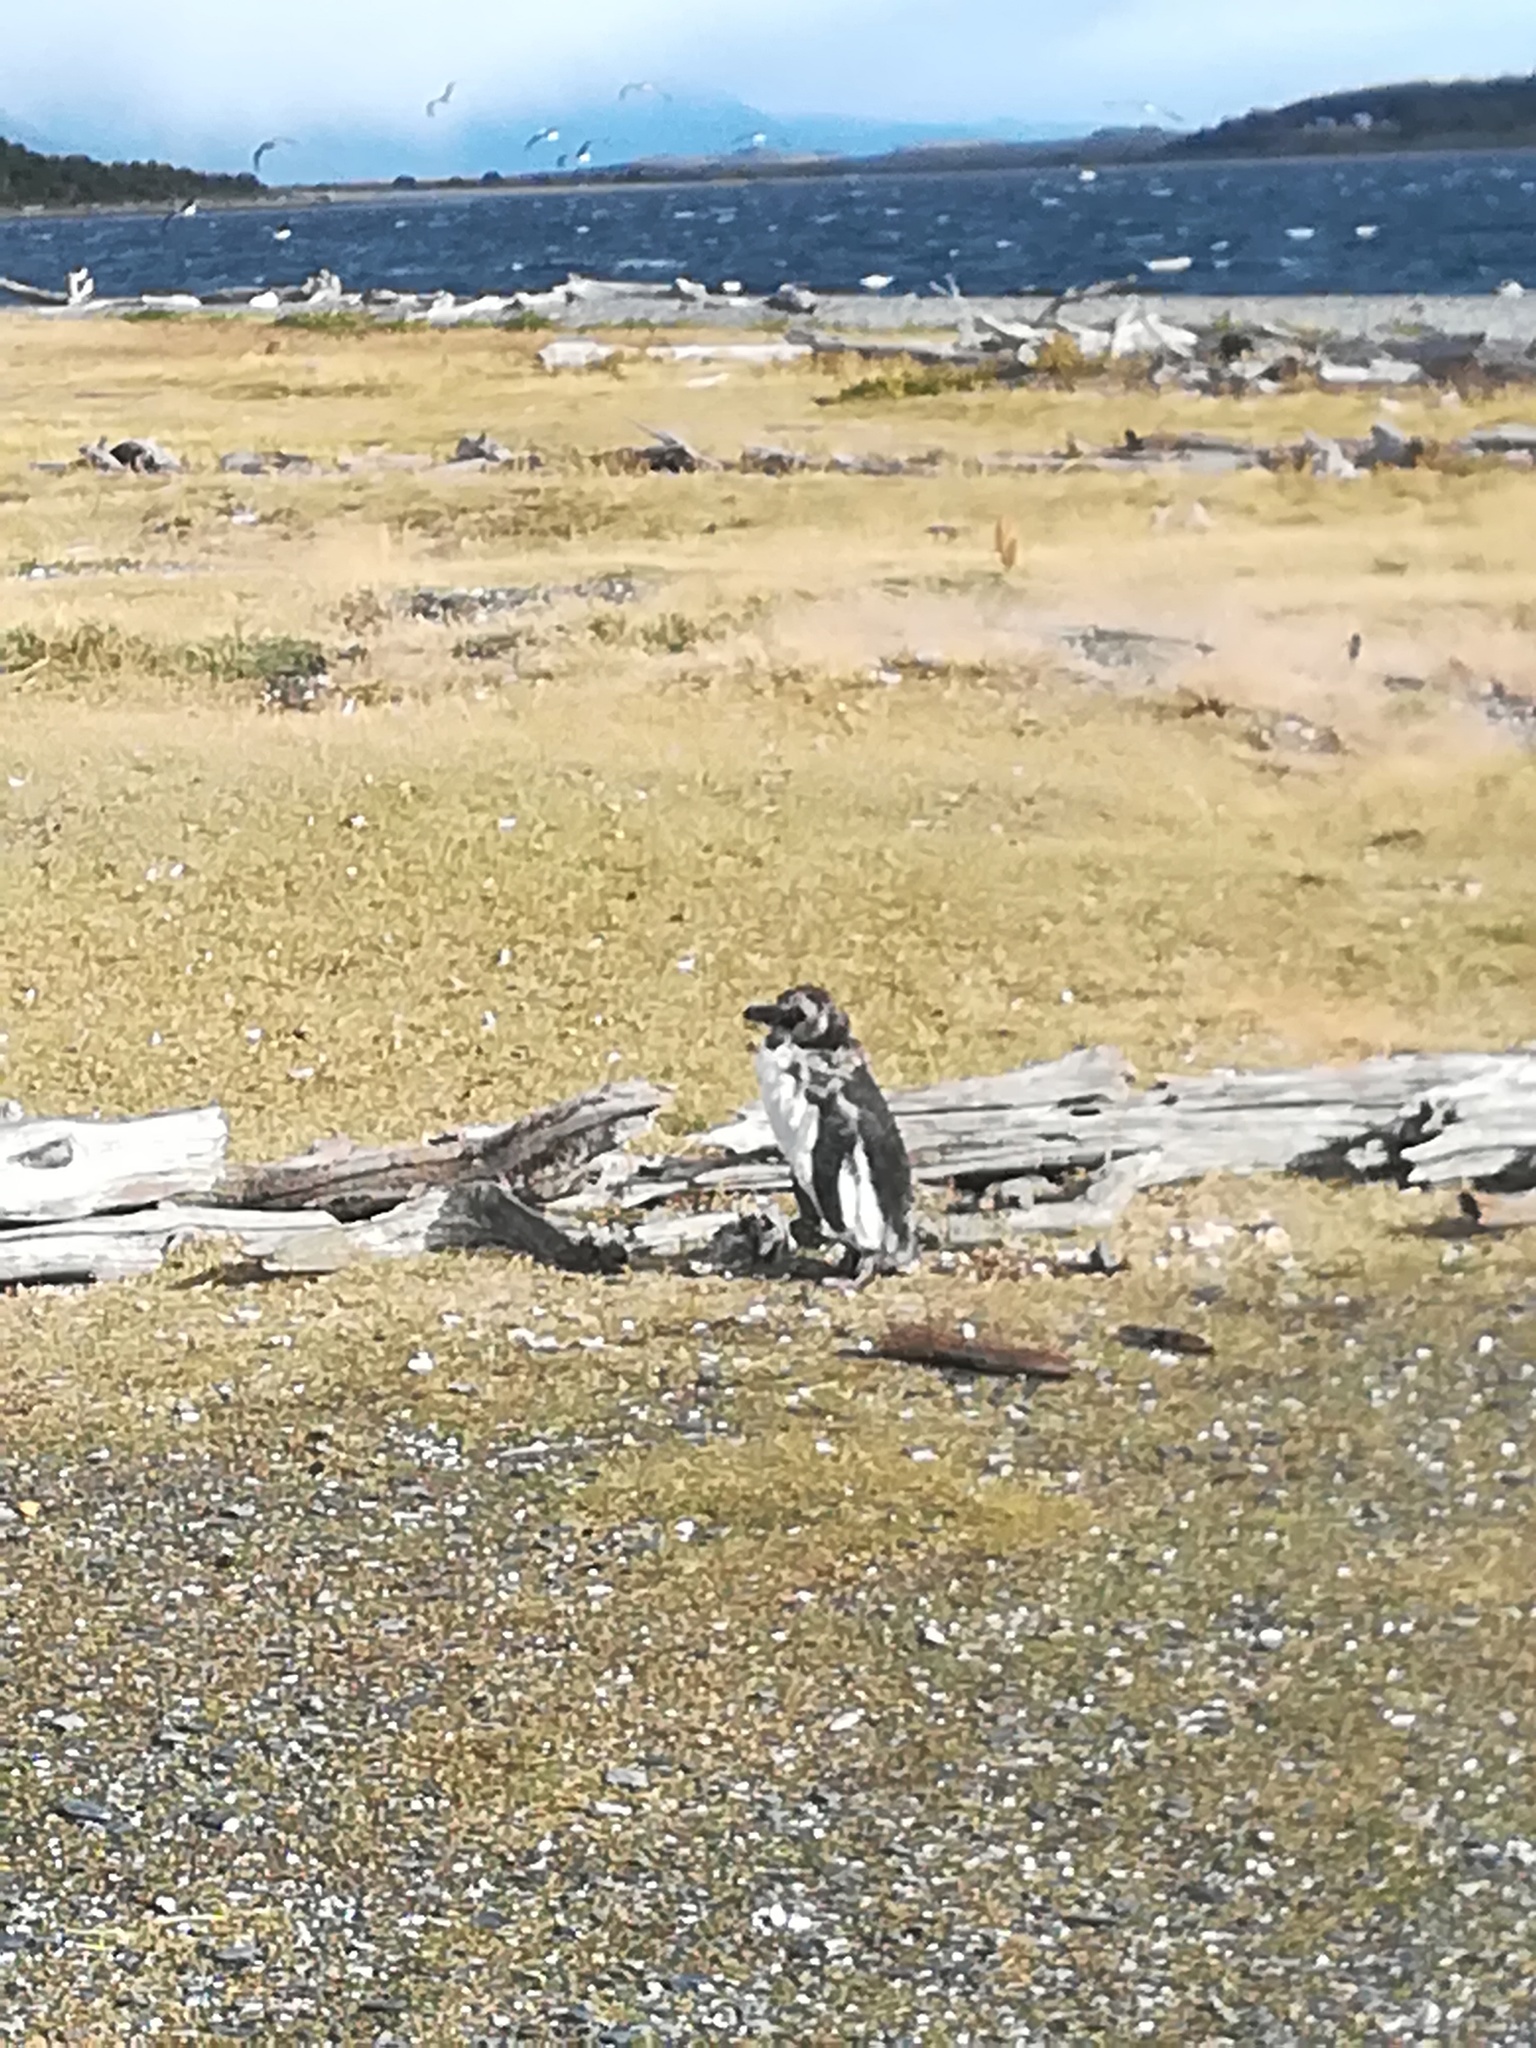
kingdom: Animalia
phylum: Chordata
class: Aves
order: Sphenisciformes
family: Spheniscidae
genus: Spheniscus
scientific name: Spheniscus magellanicus
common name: Magellanic penguin
